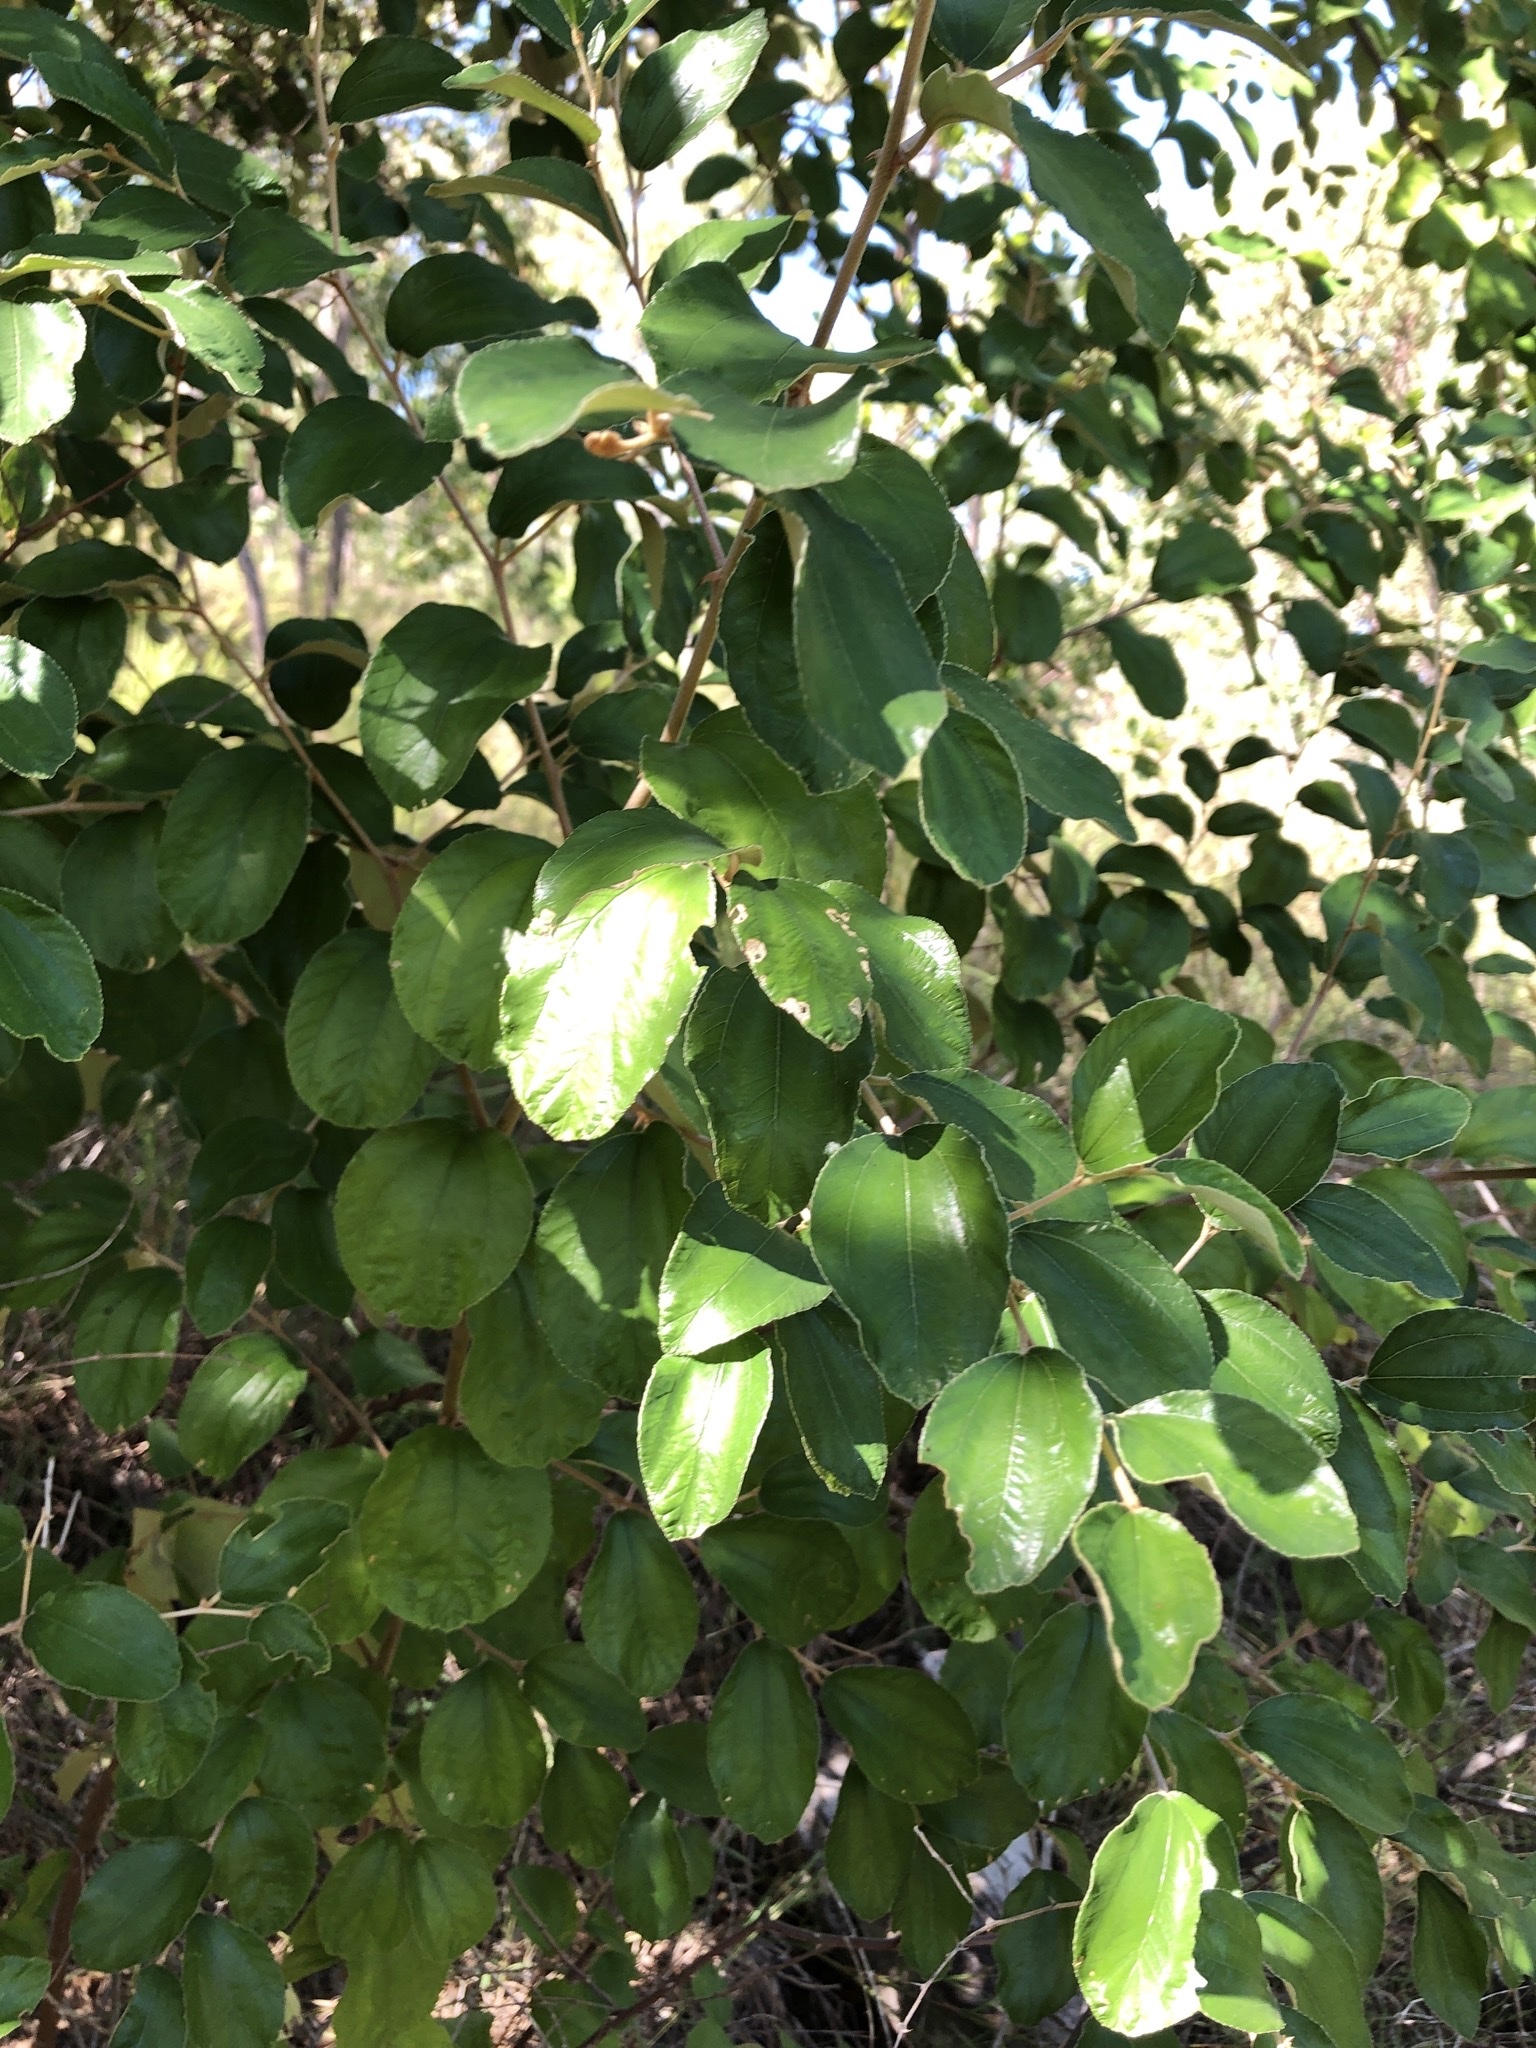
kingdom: Plantae
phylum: Tracheophyta
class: Magnoliopsida
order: Rosales
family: Rhamnaceae
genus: Ziziphus
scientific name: Ziziphus mauritiana
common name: Indian jujube
